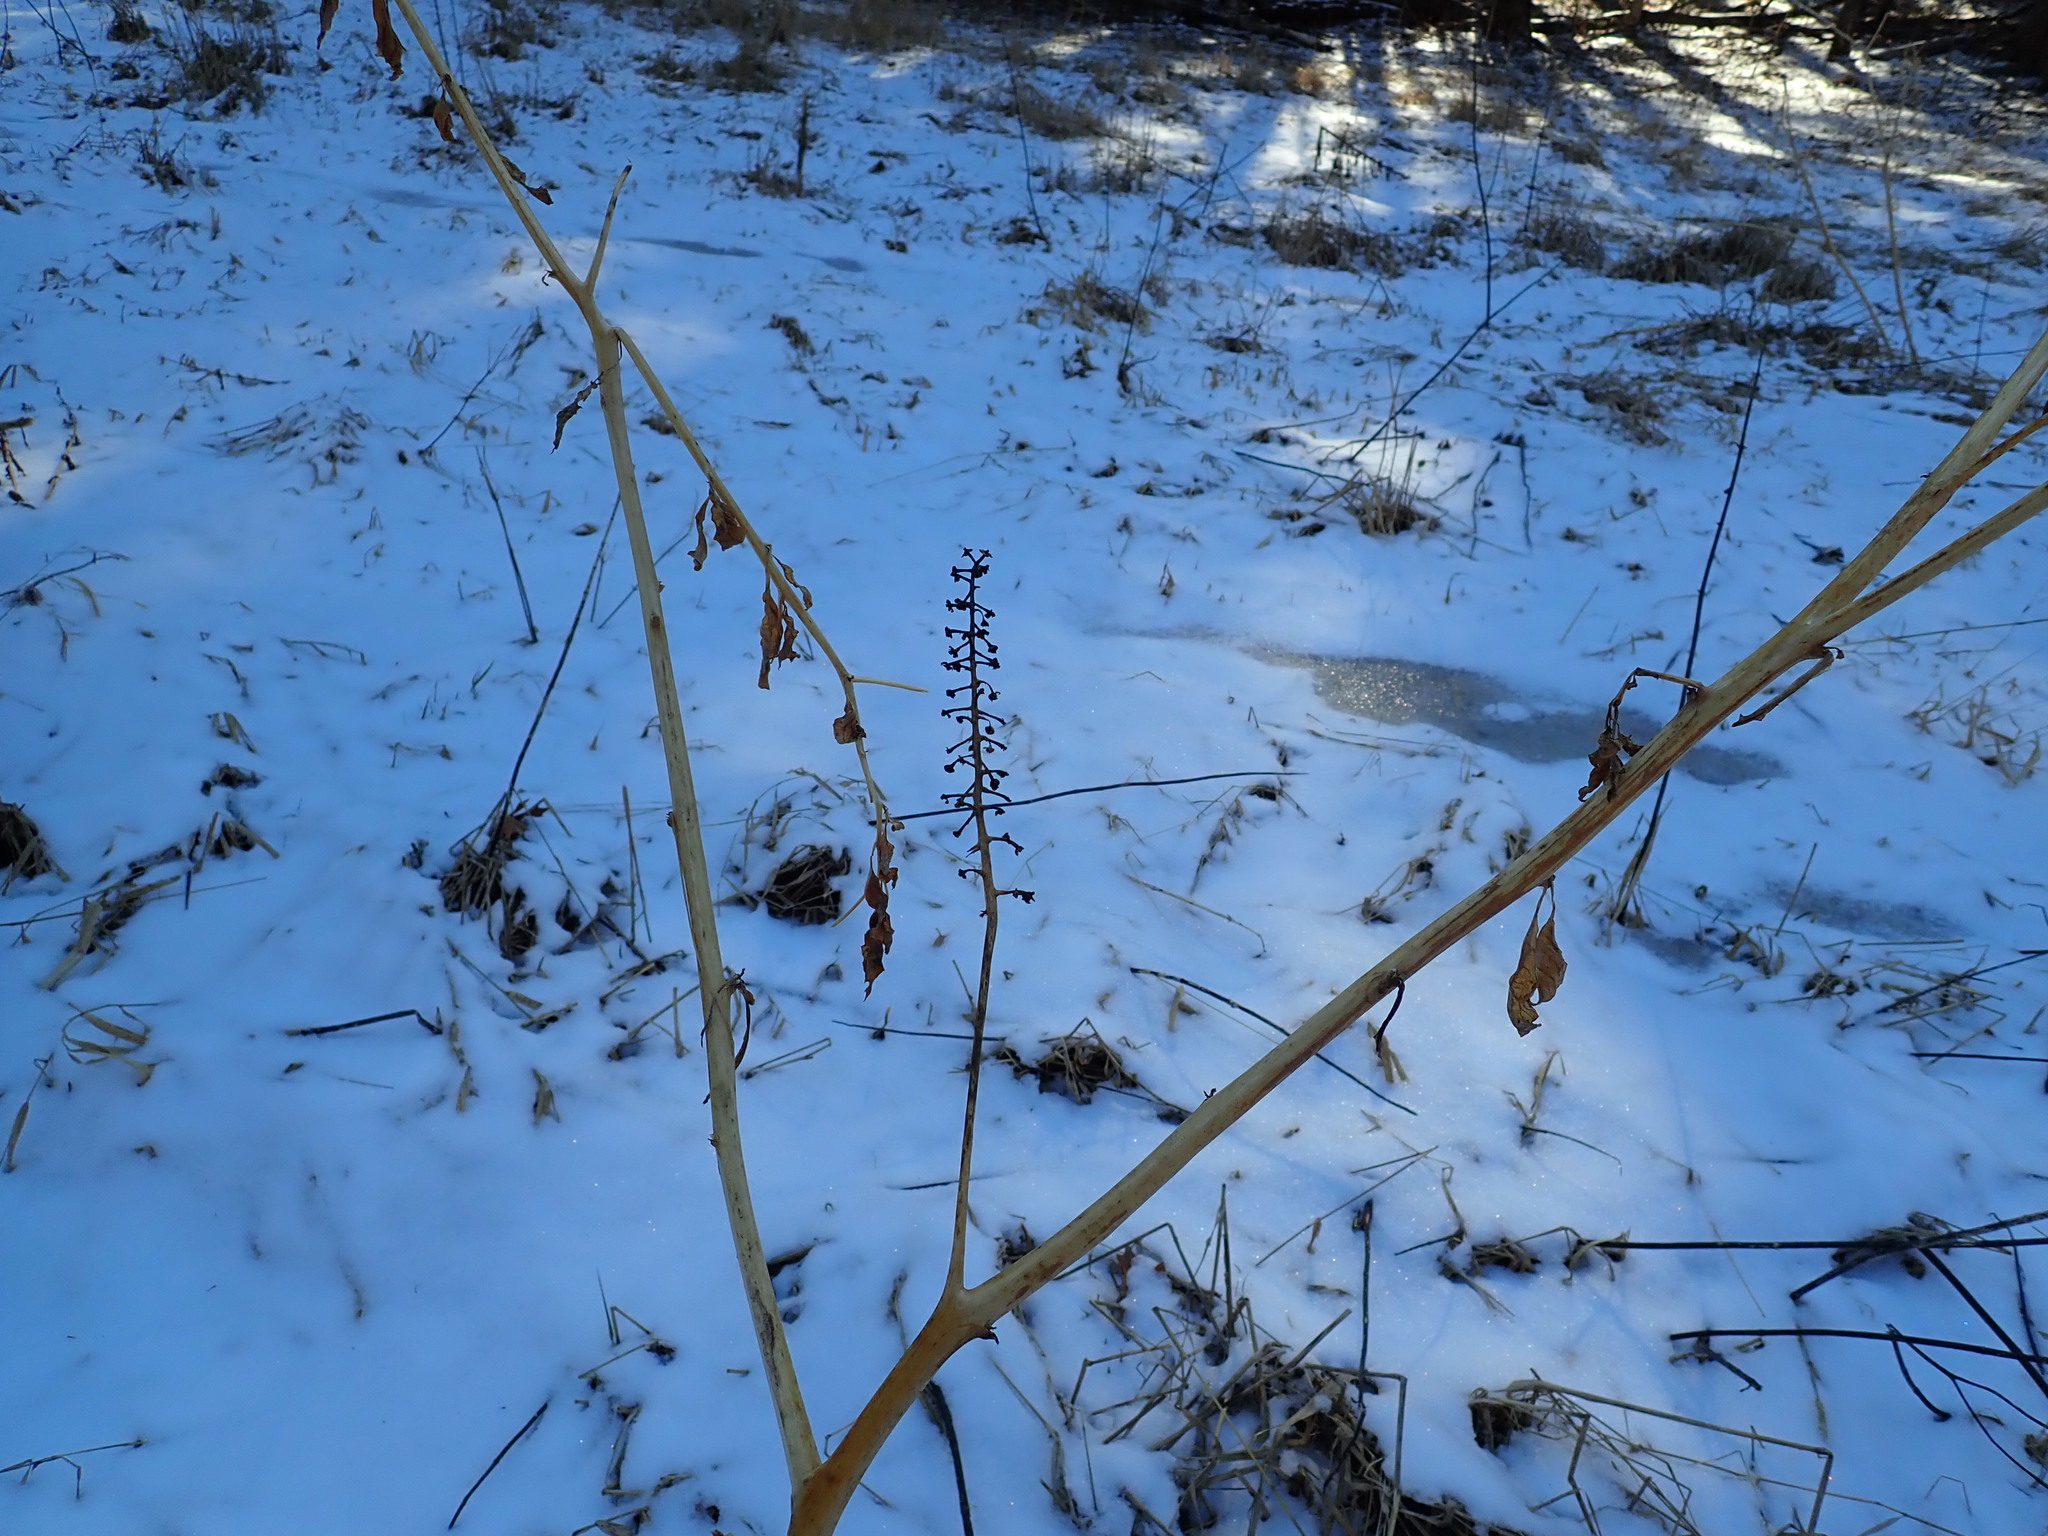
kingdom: Plantae
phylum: Tracheophyta
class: Magnoliopsida
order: Caryophyllales
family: Phytolaccaceae
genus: Phytolacca
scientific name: Phytolacca americana
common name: American pokeweed
